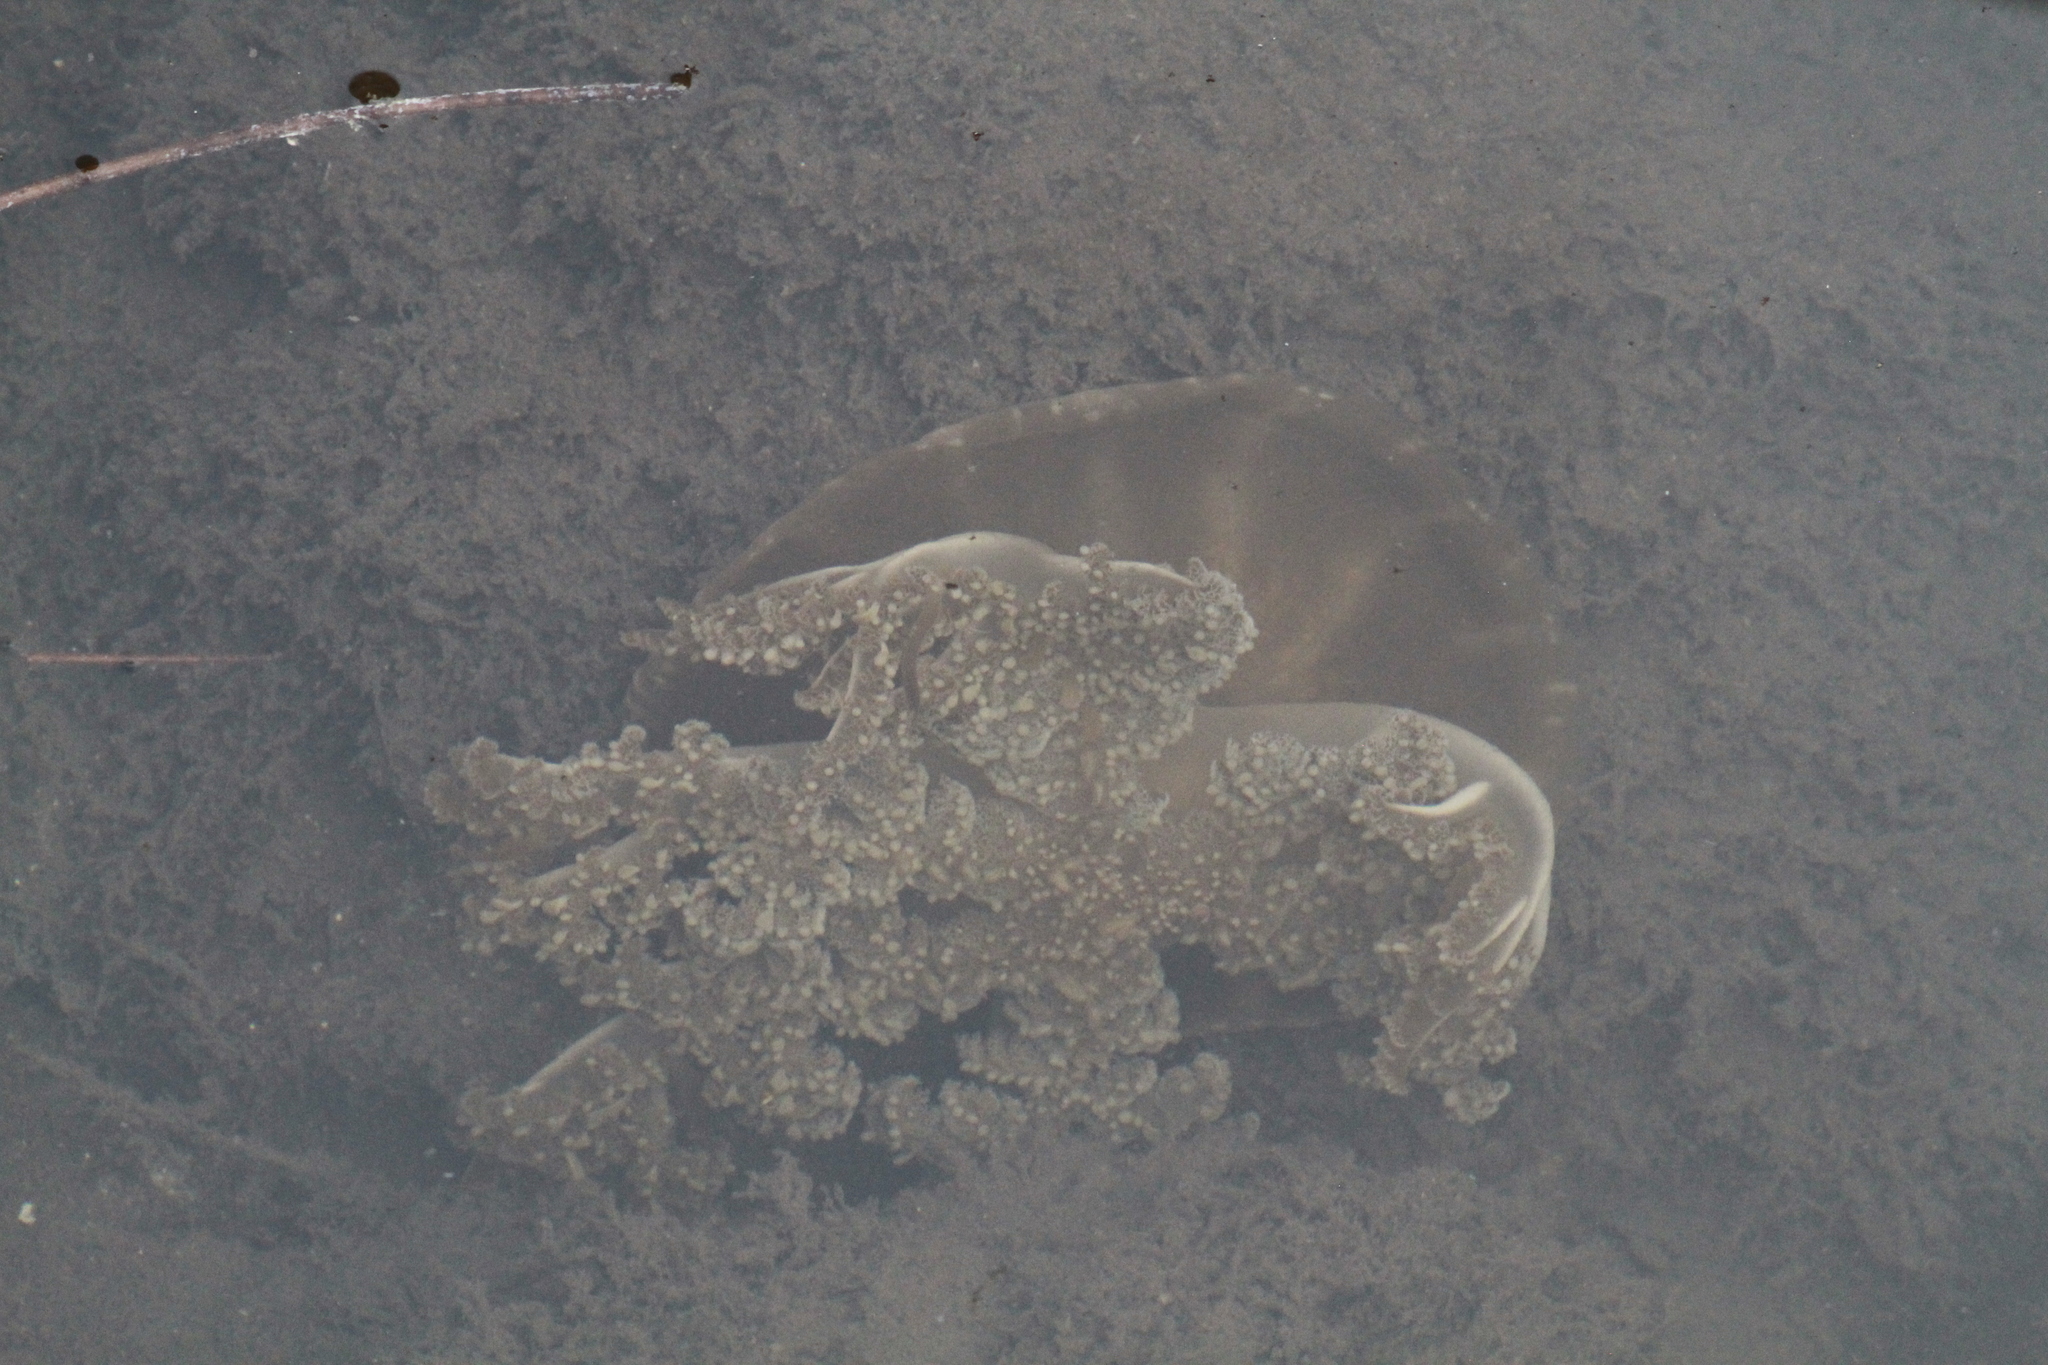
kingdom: Animalia
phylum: Cnidaria
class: Scyphozoa
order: Rhizostomeae
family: Cassiopeidae
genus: Cassiopea
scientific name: Cassiopea andromeda
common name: Upside-down jellyfish
